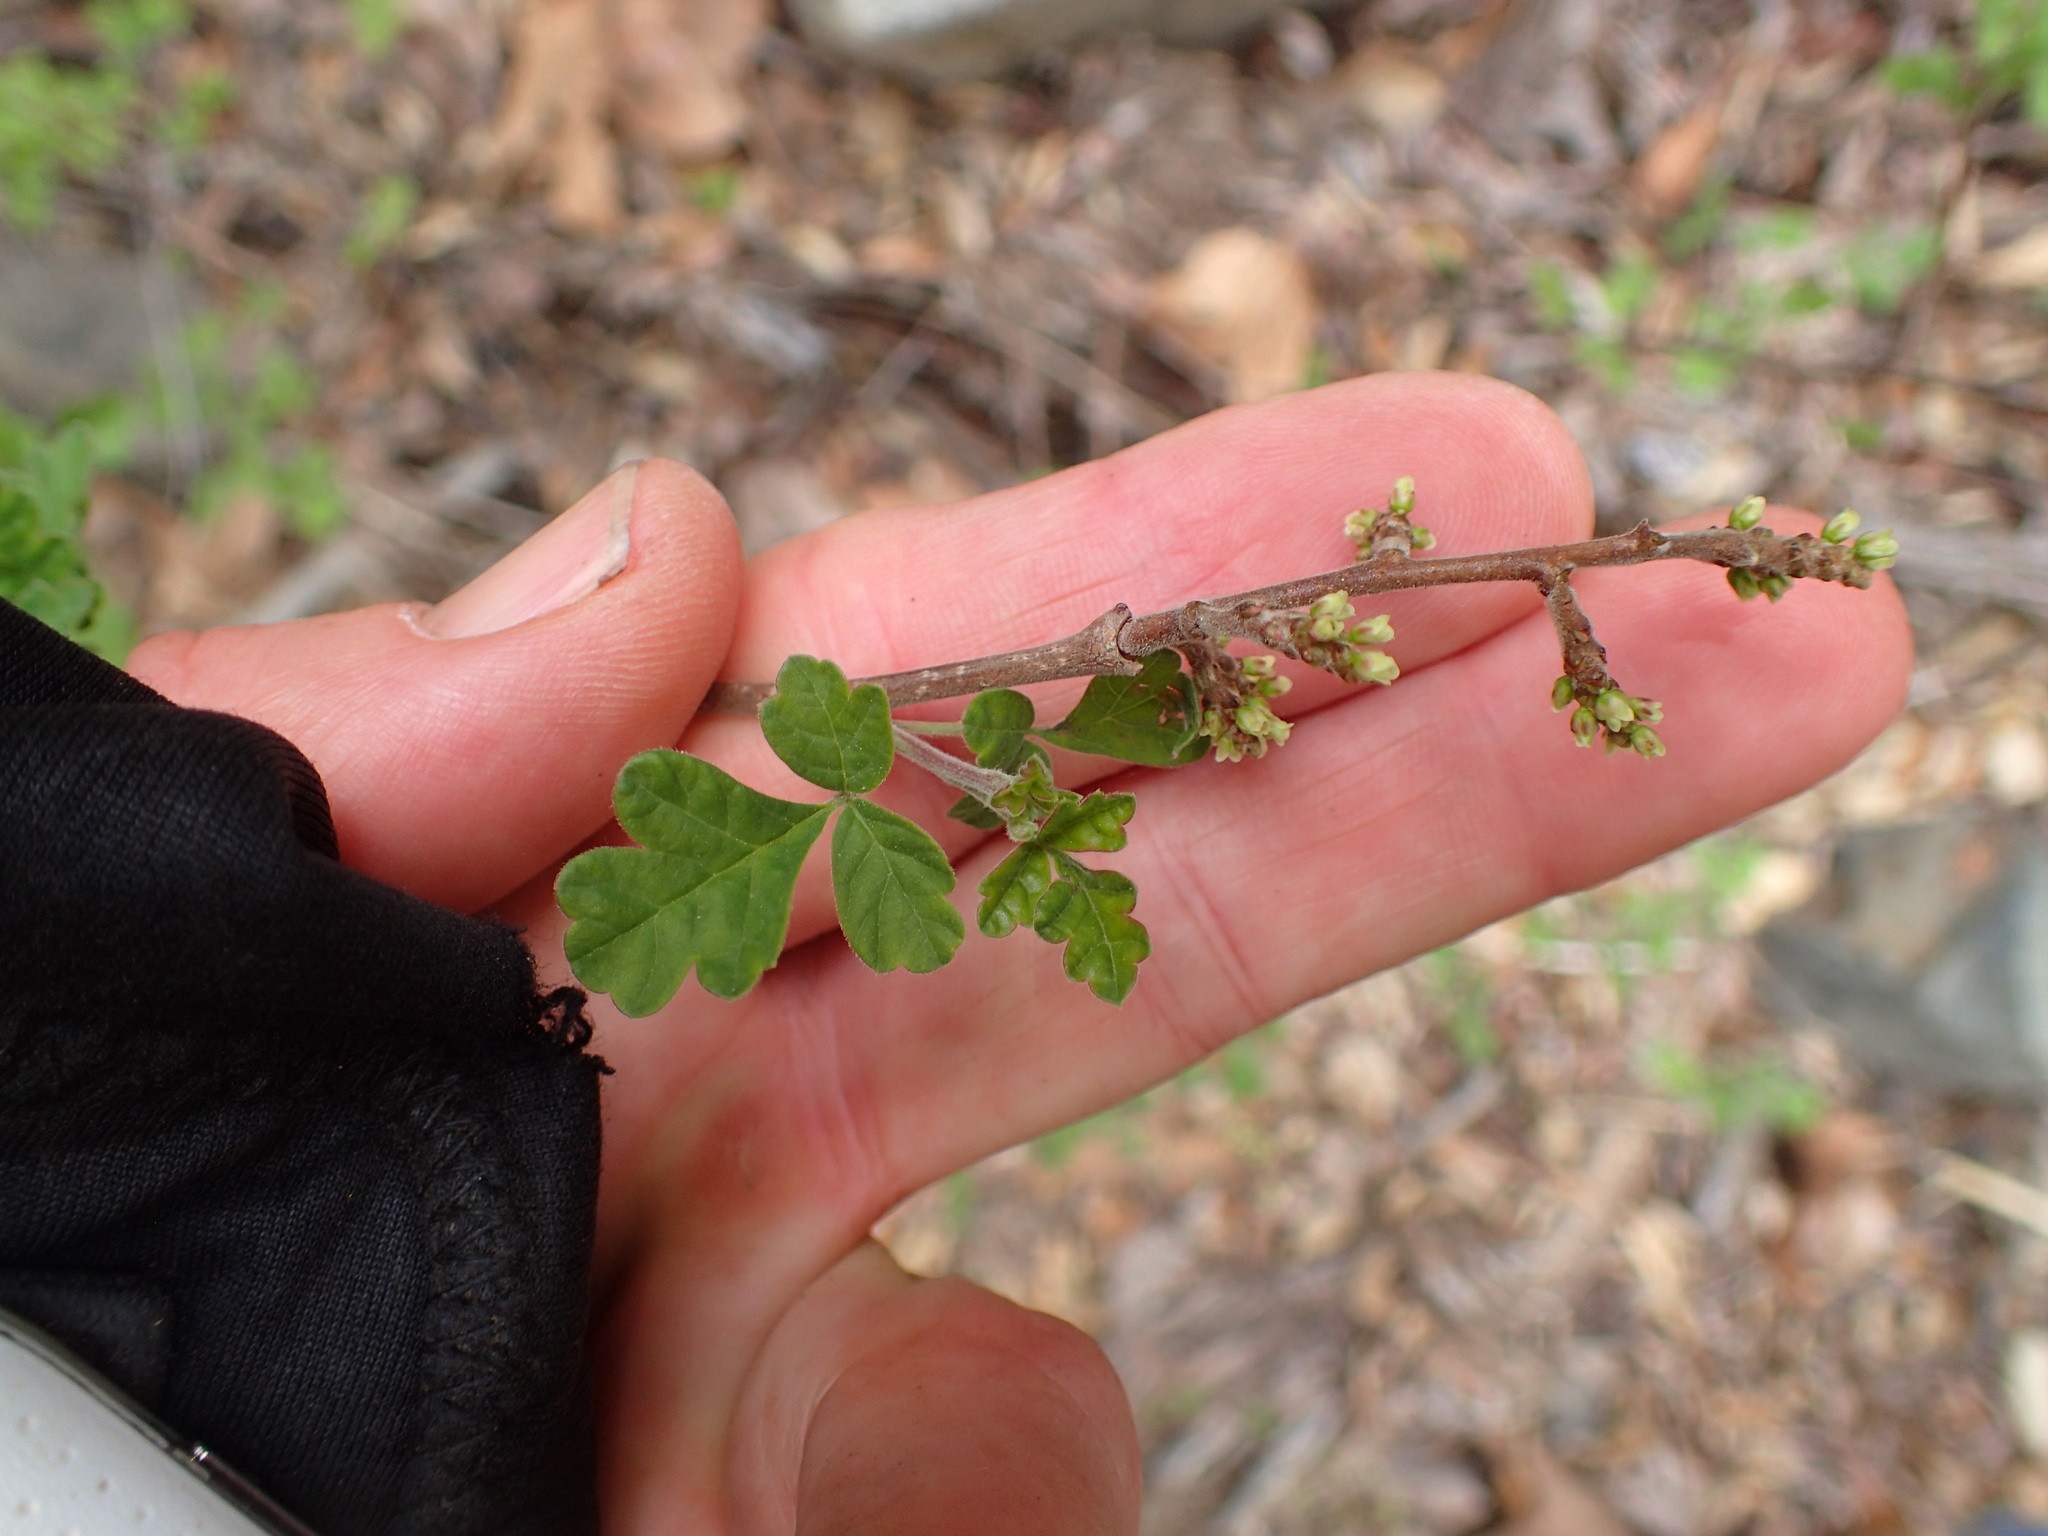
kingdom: Plantae
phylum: Tracheophyta
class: Magnoliopsida
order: Sapindales
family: Anacardiaceae
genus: Rhus
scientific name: Rhus aromatica
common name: Aromatic sumac
